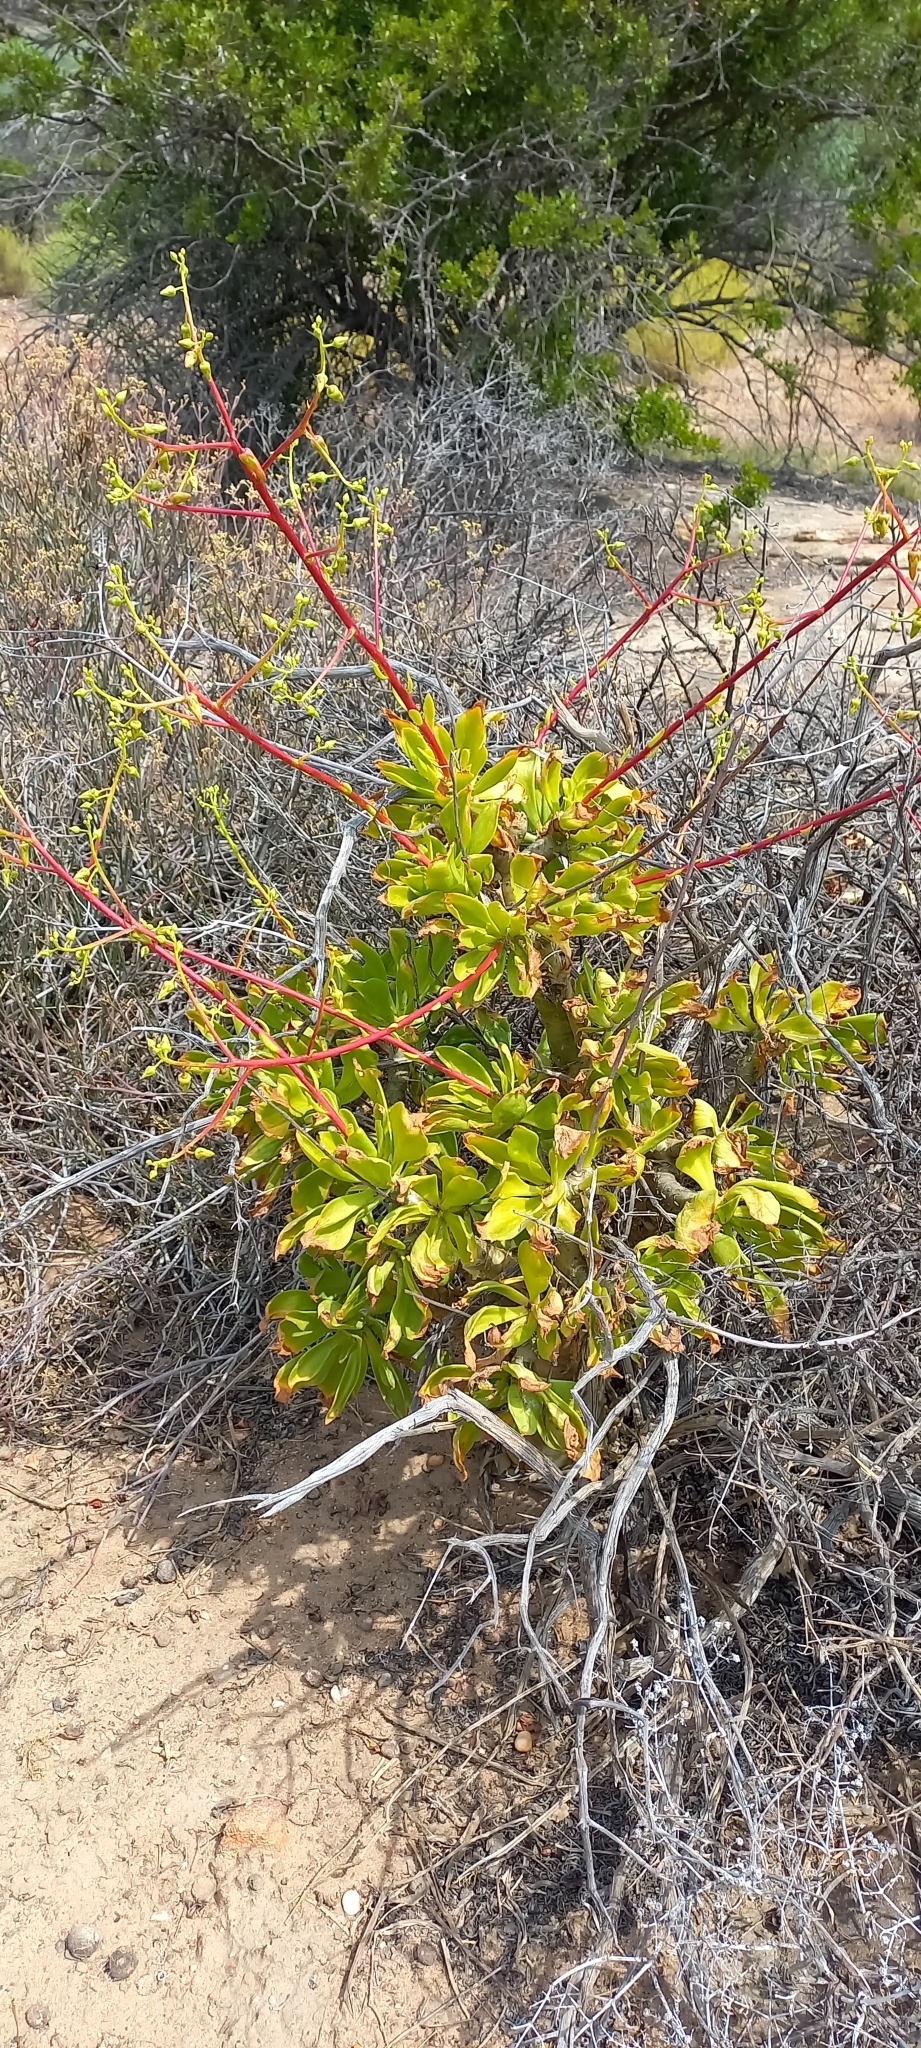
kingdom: Plantae
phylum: Tracheophyta
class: Magnoliopsida
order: Saxifragales
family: Crassulaceae
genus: Tylecodon
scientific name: Tylecodon paniculatus
